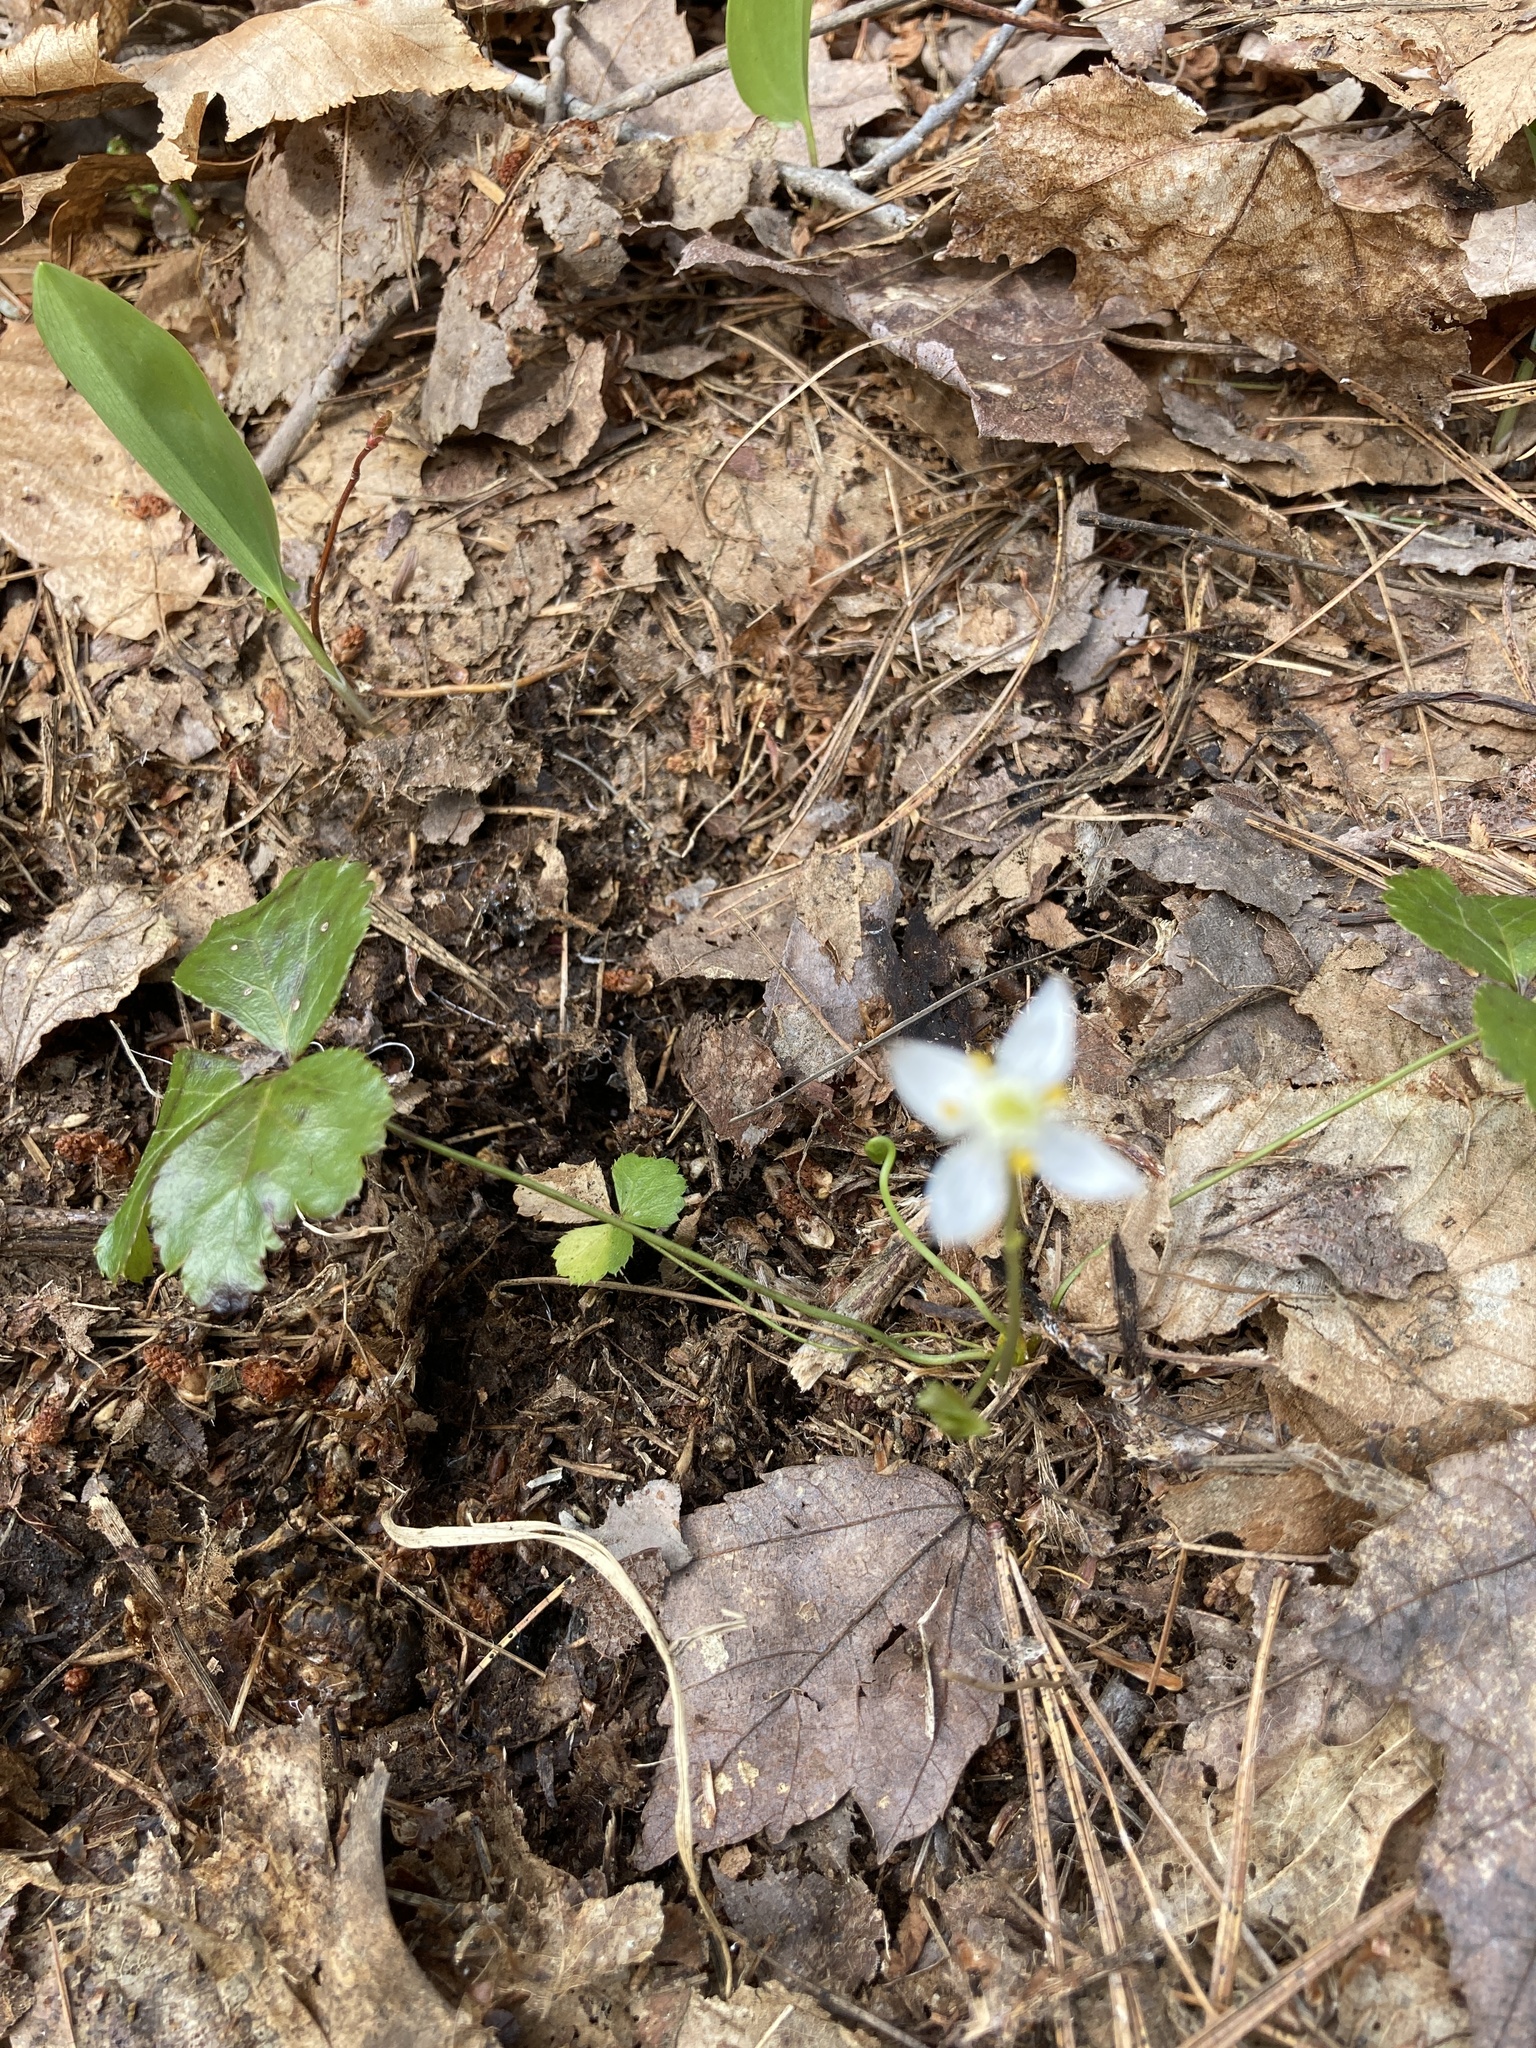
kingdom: Plantae
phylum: Tracheophyta
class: Magnoliopsida
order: Ranunculales
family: Ranunculaceae
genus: Coptis
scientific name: Coptis trifolia
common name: Canker-root
